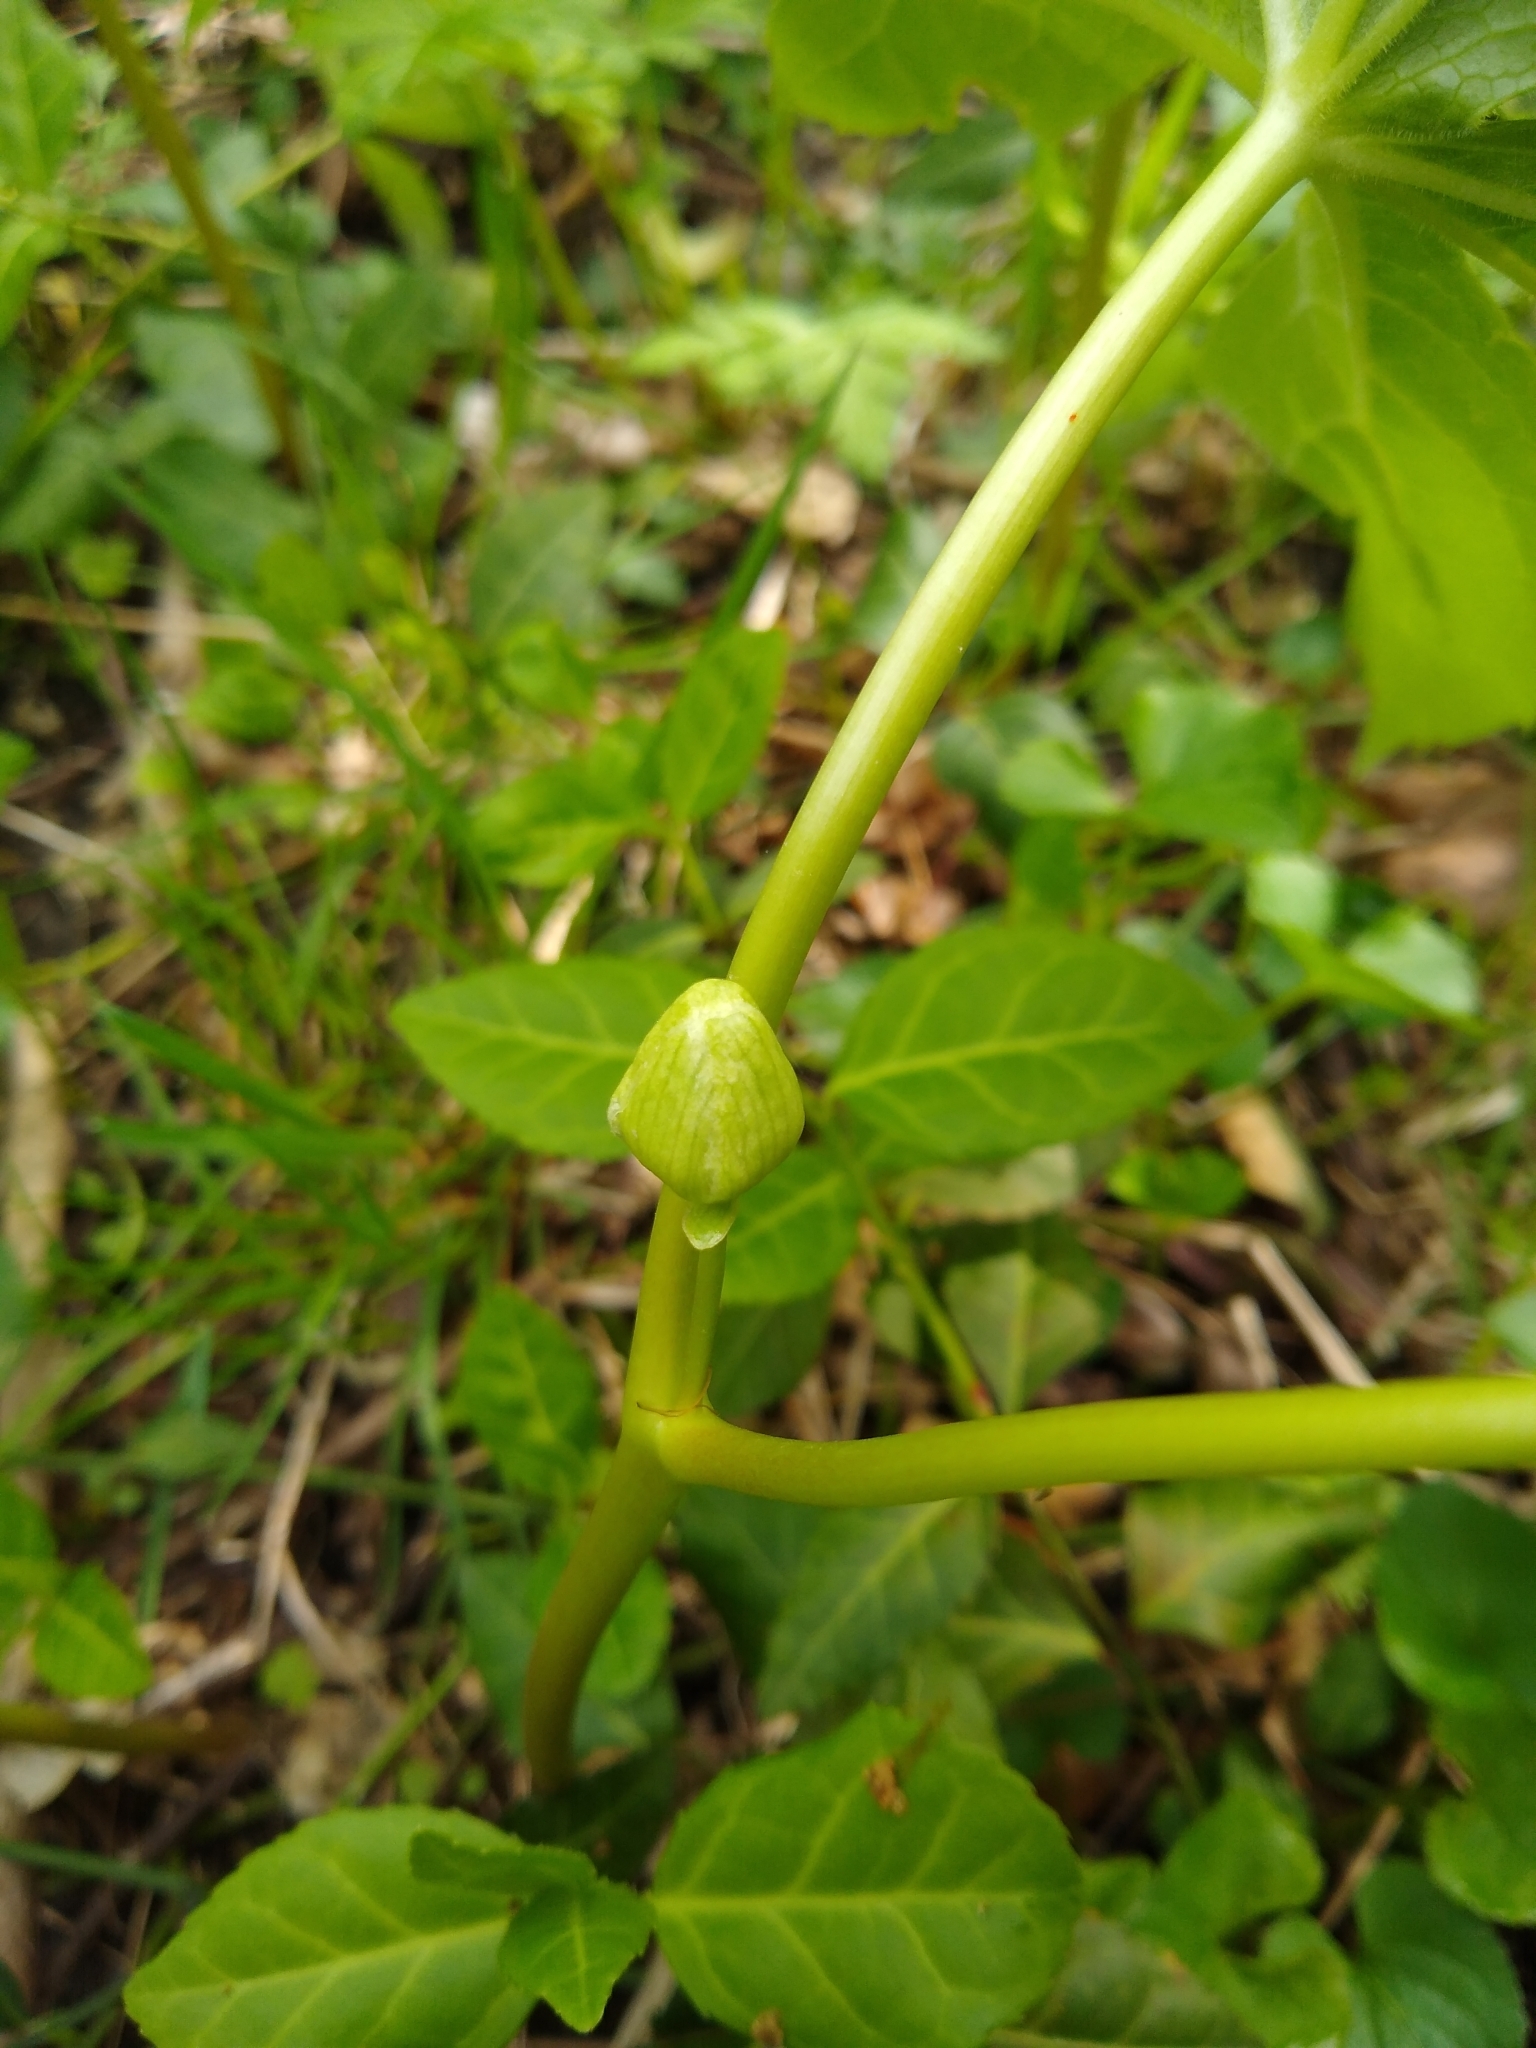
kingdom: Plantae
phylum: Tracheophyta
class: Magnoliopsida
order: Ranunculales
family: Berberidaceae
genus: Podophyllum
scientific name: Podophyllum peltatum
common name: Wild mandrake
